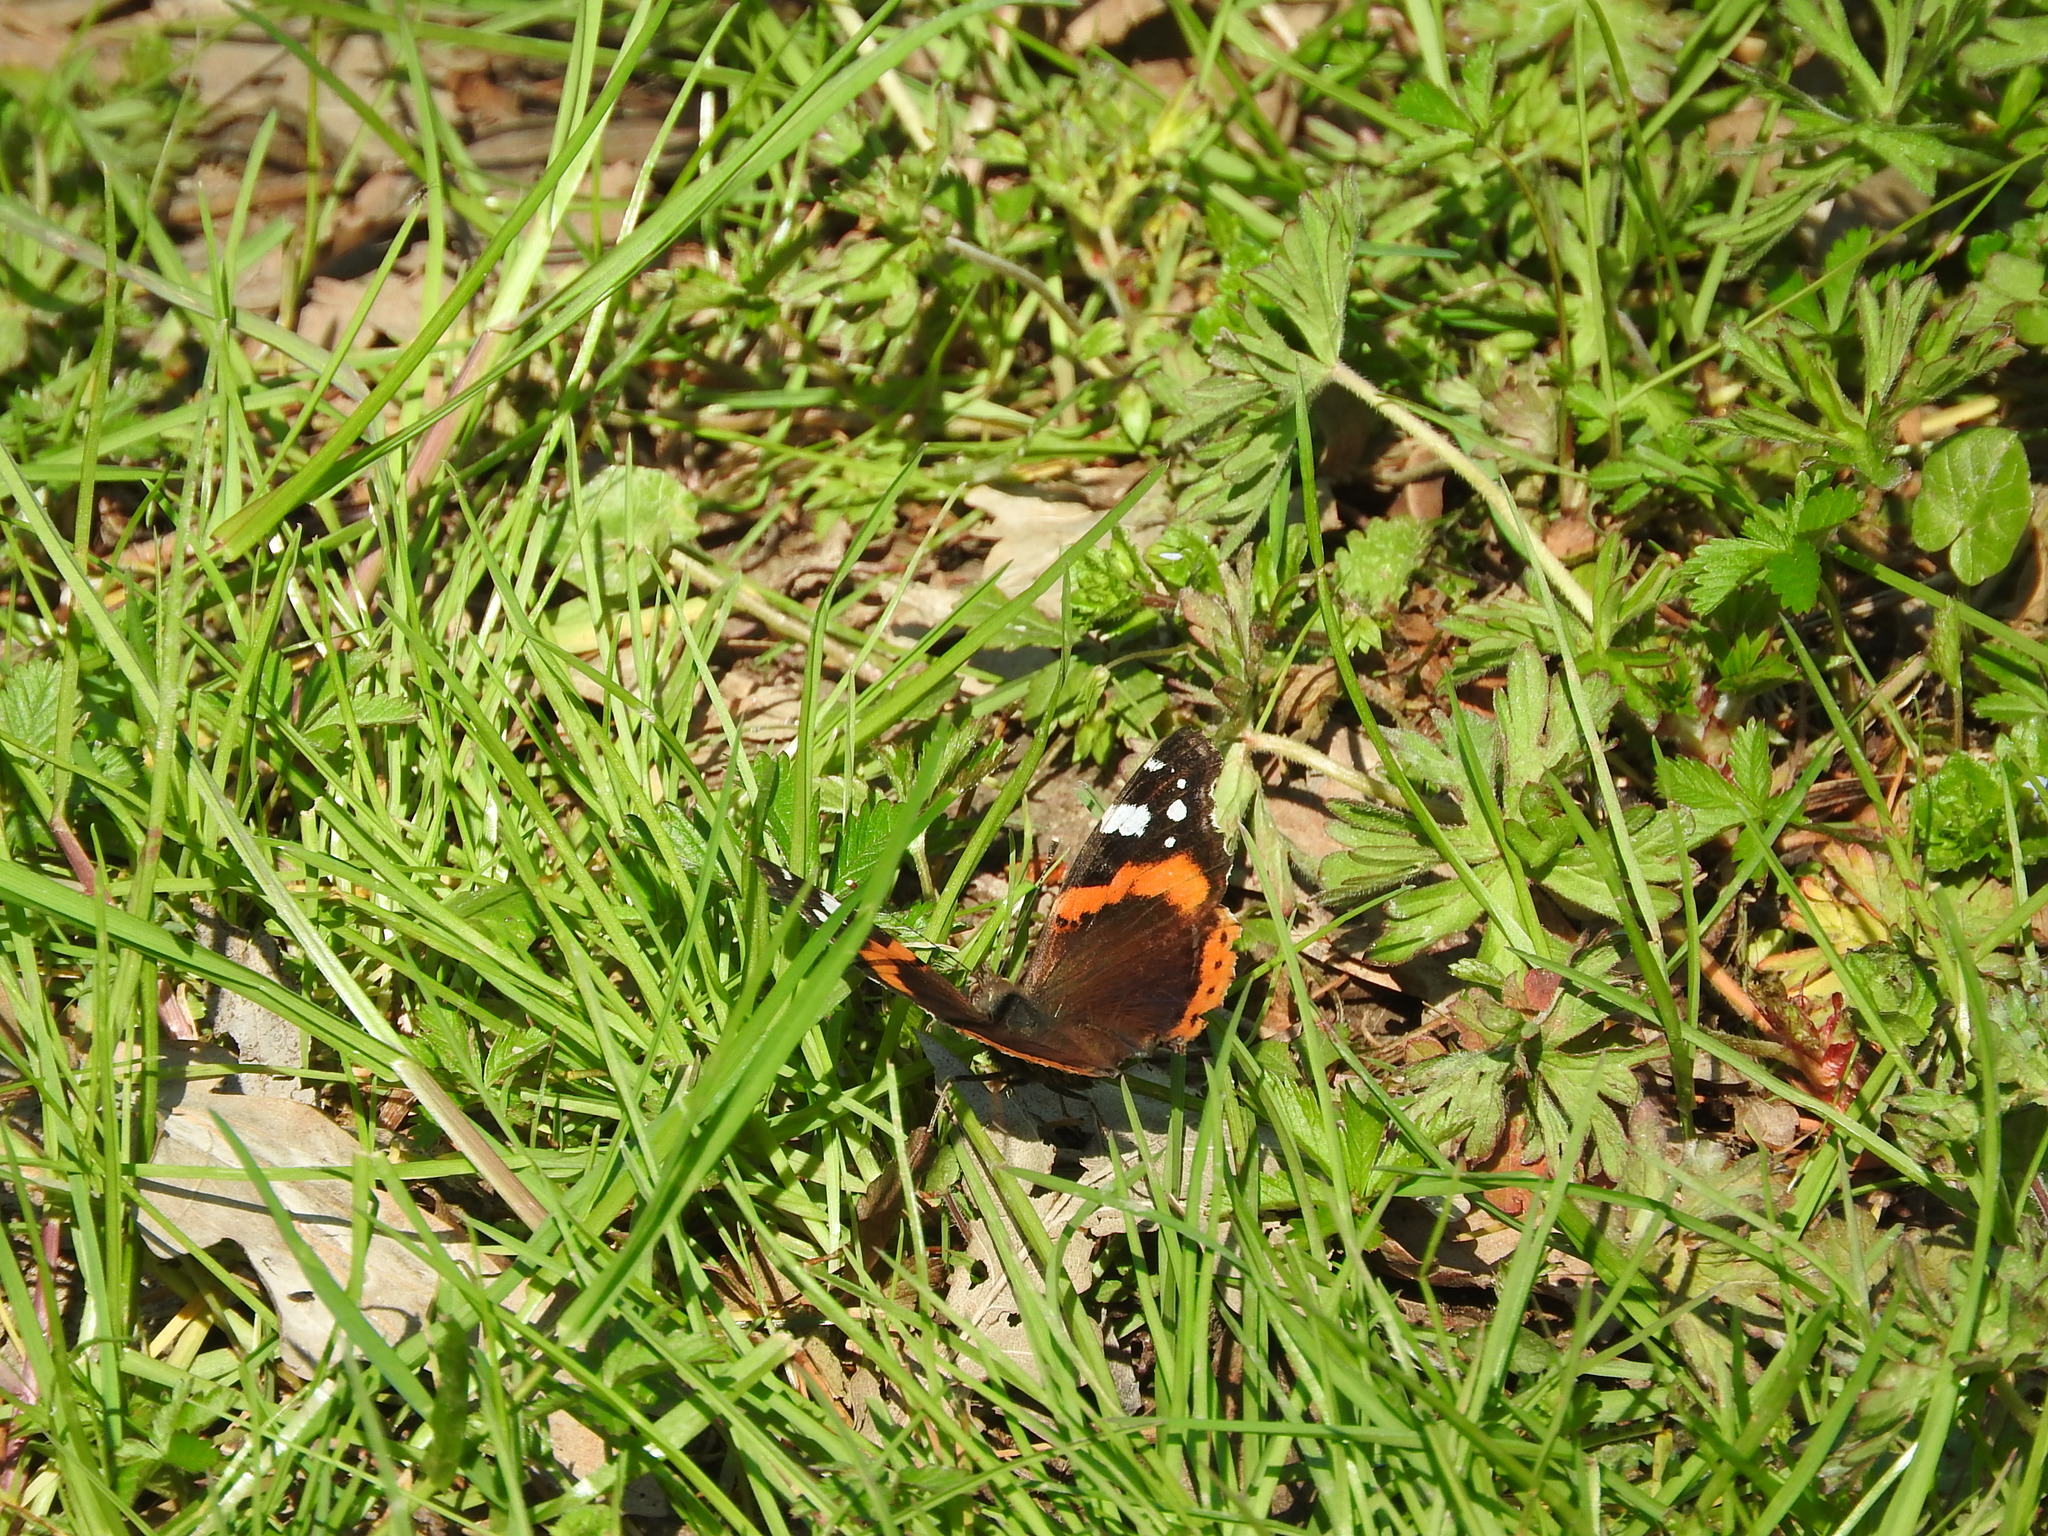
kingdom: Animalia
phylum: Arthropoda
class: Insecta
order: Lepidoptera
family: Nymphalidae
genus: Vanessa
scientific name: Vanessa atalanta
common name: Red admiral
